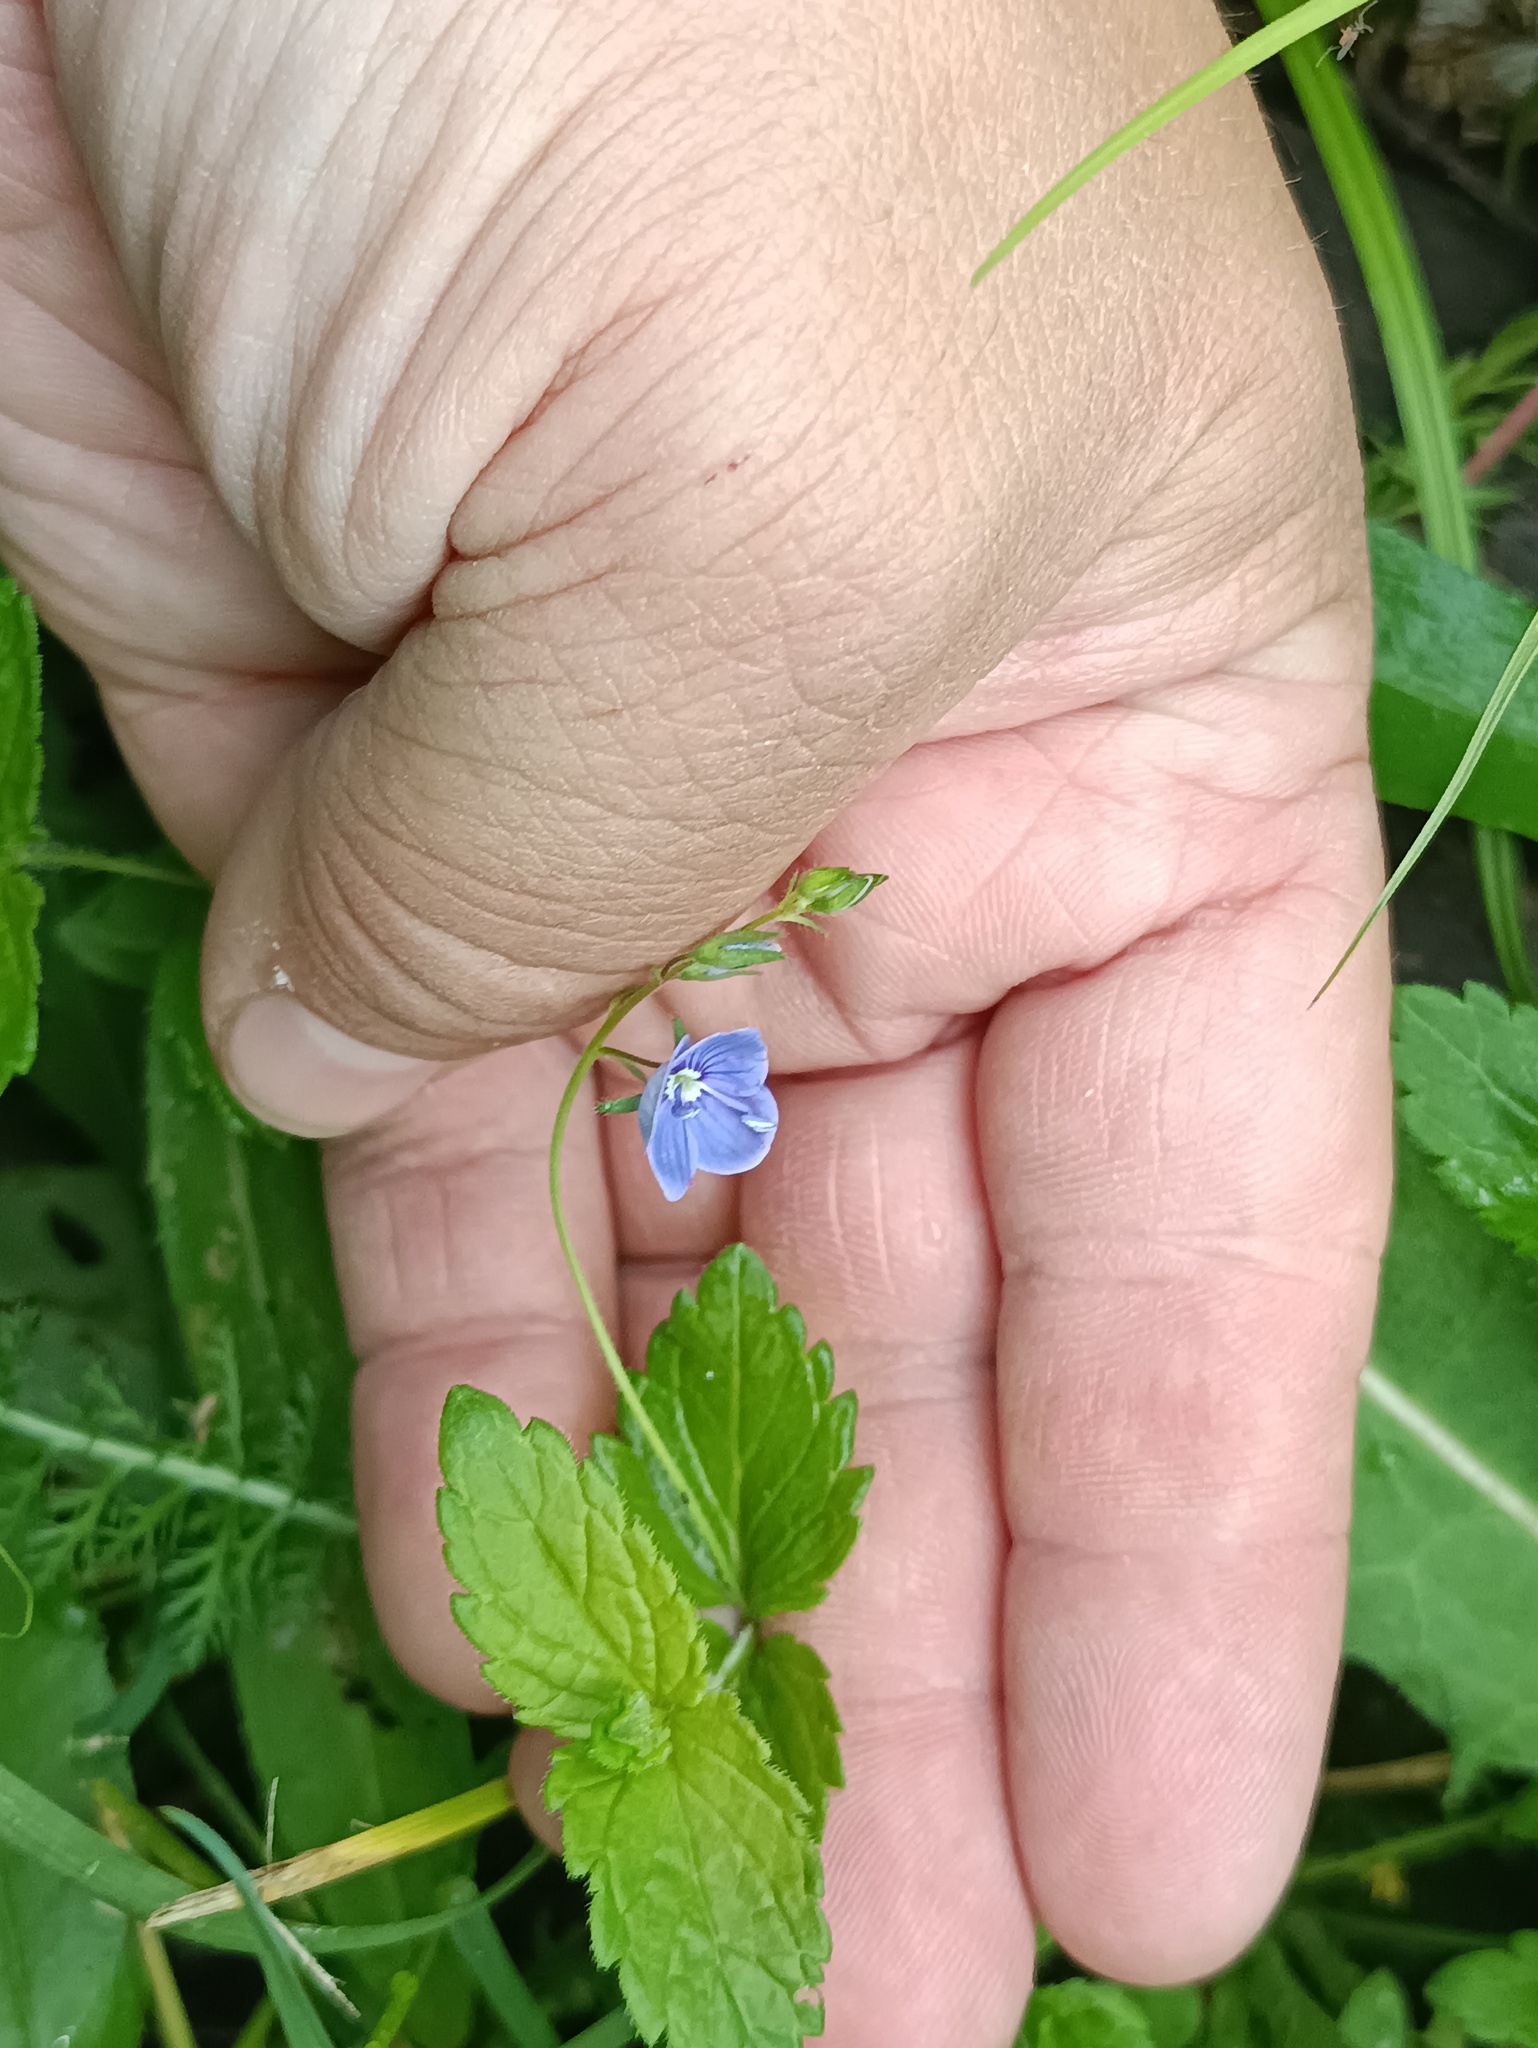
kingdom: Plantae
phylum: Tracheophyta
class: Magnoliopsida
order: Lamiales
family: Plantaginaceae
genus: Veronica
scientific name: Veronica chamaedrys
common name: Germander speedwell
